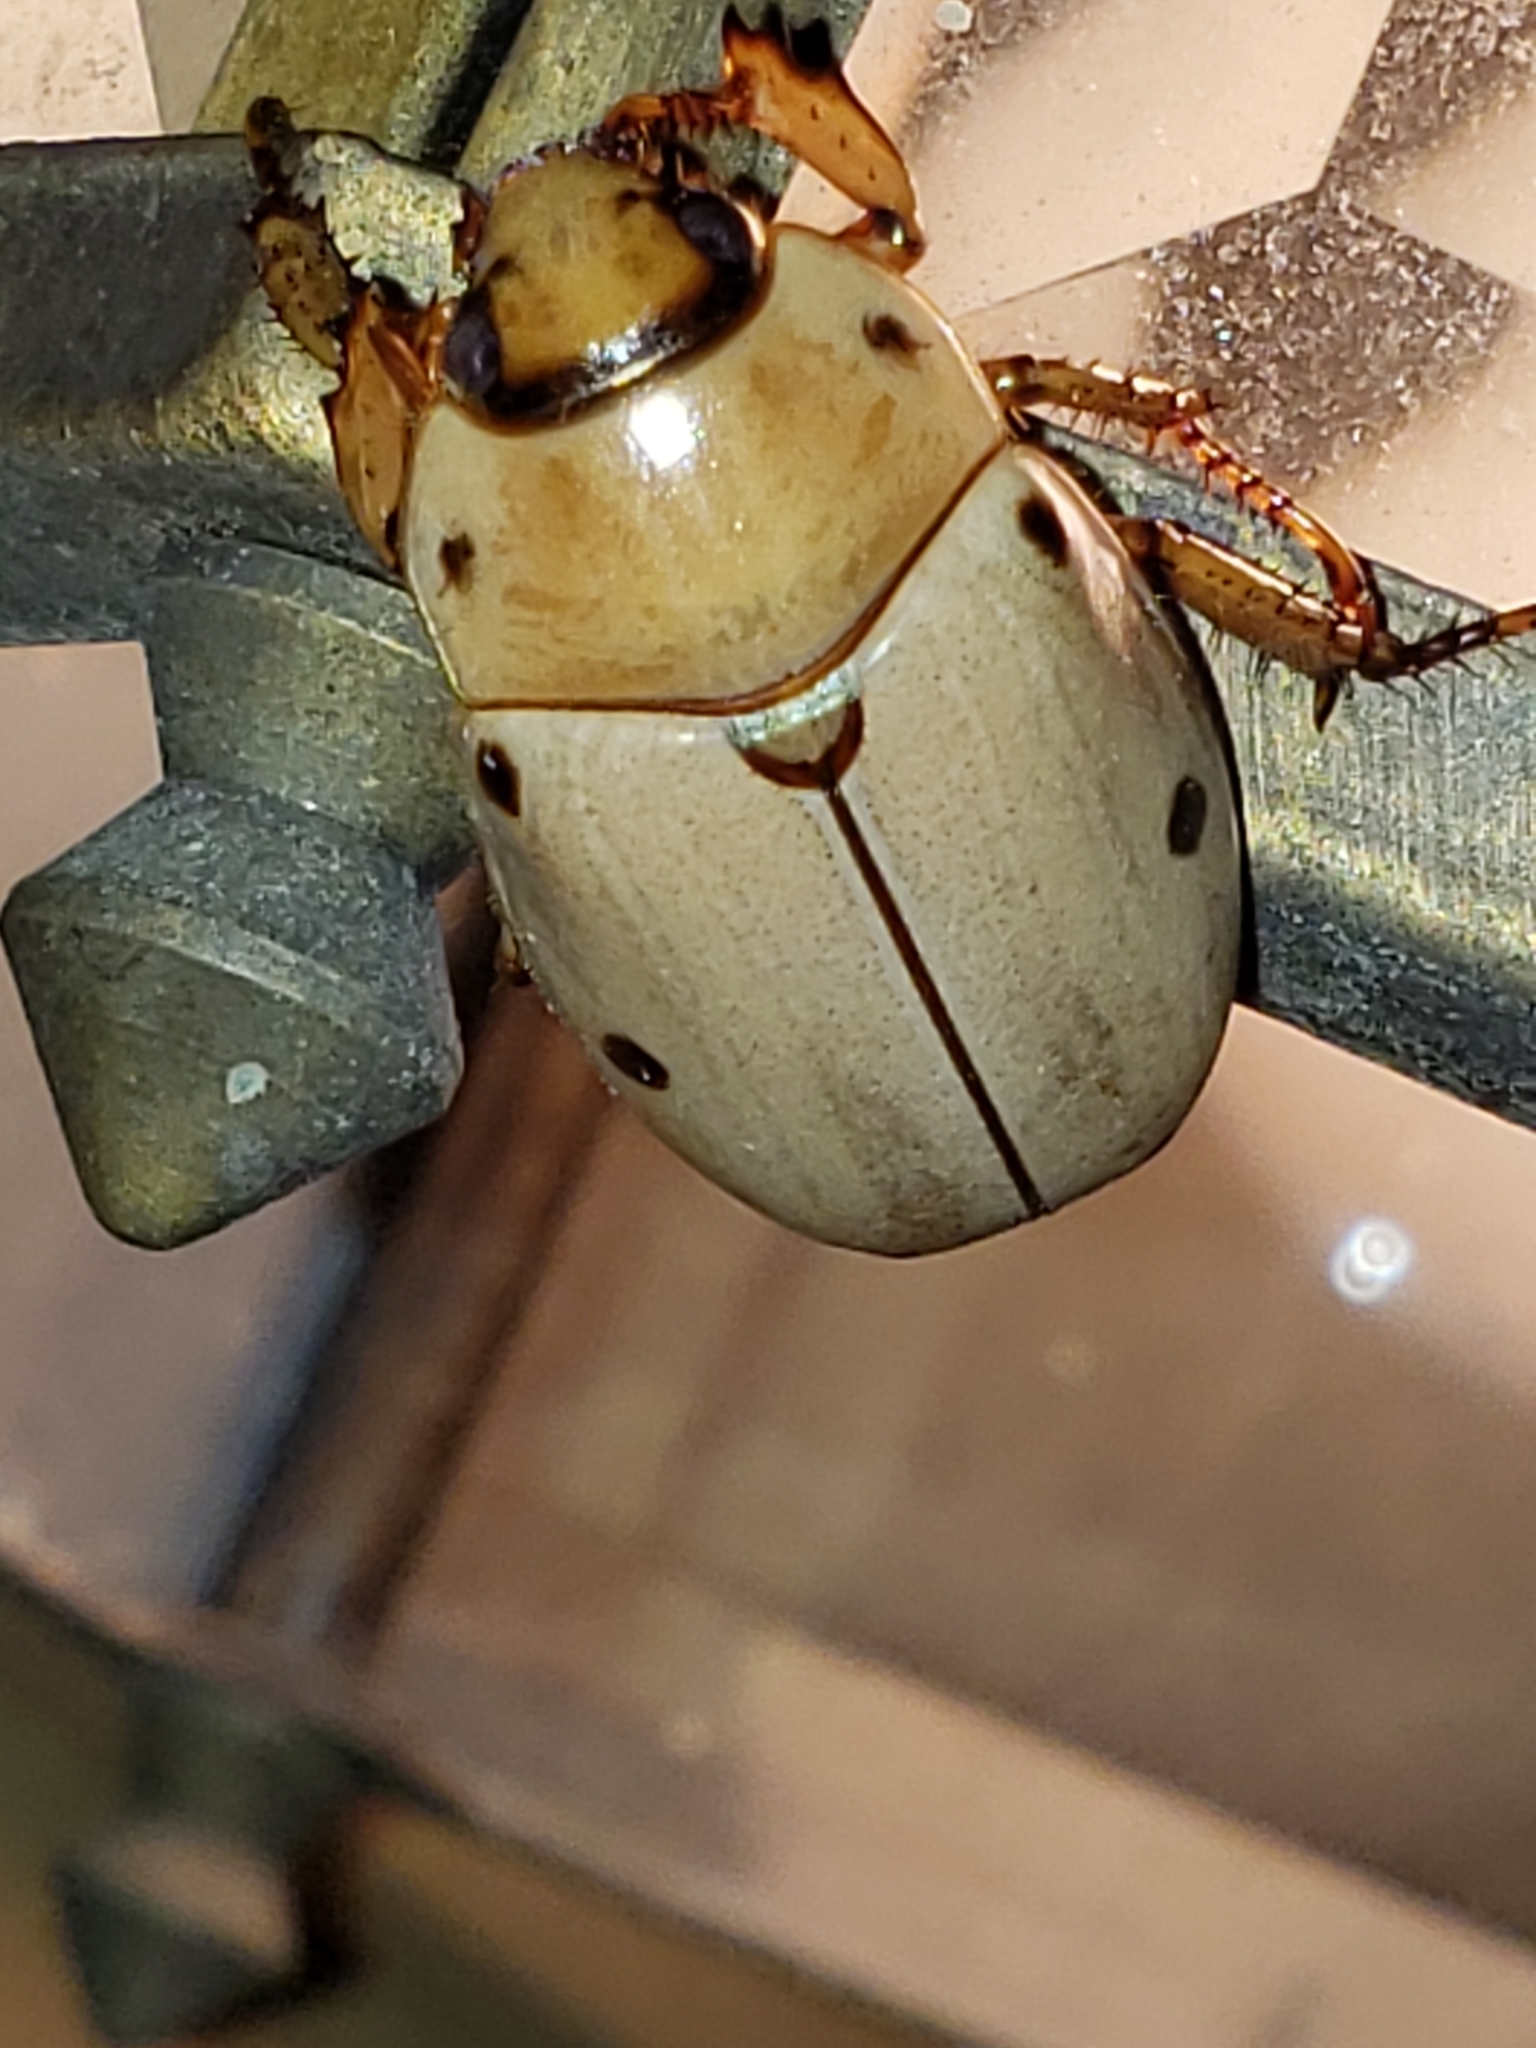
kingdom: Animalia
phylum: Arthropoda
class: Insecta
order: Coleoptera
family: Scarabaeidae
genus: Pelidnota
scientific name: Pelidnota punctata
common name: Grapevine beetle
